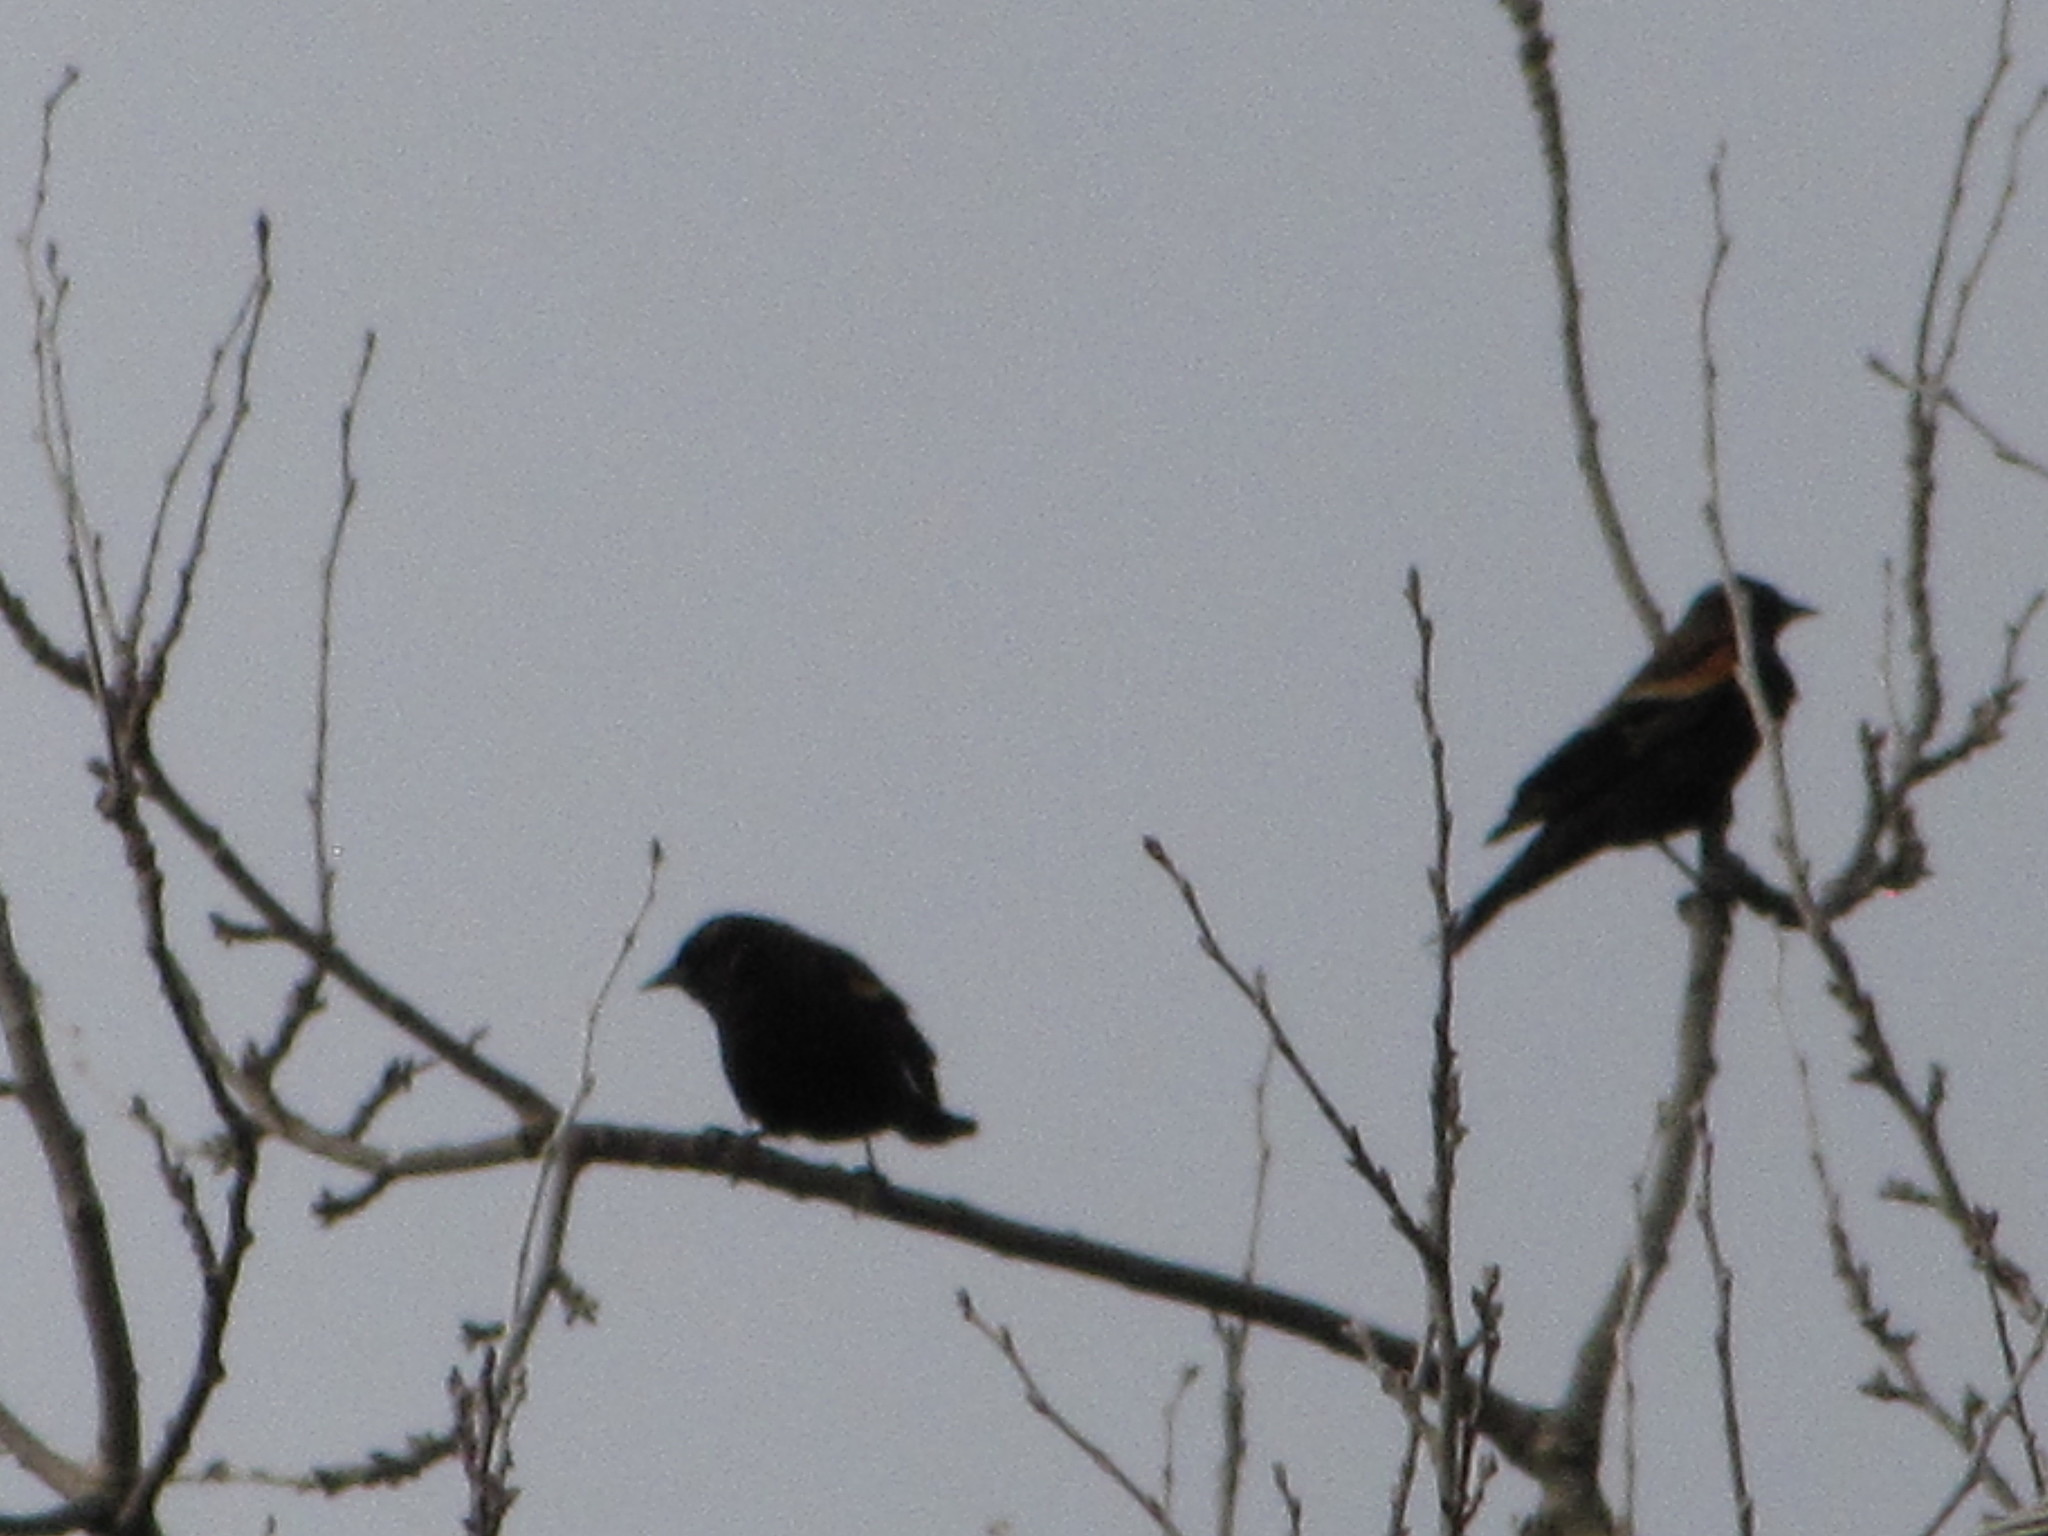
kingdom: Animalia
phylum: Chordata
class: Aves
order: Passeriformes
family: Icteridae
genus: Agelaius
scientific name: Agelaius phoeniceus
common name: Red-winged blackbird
